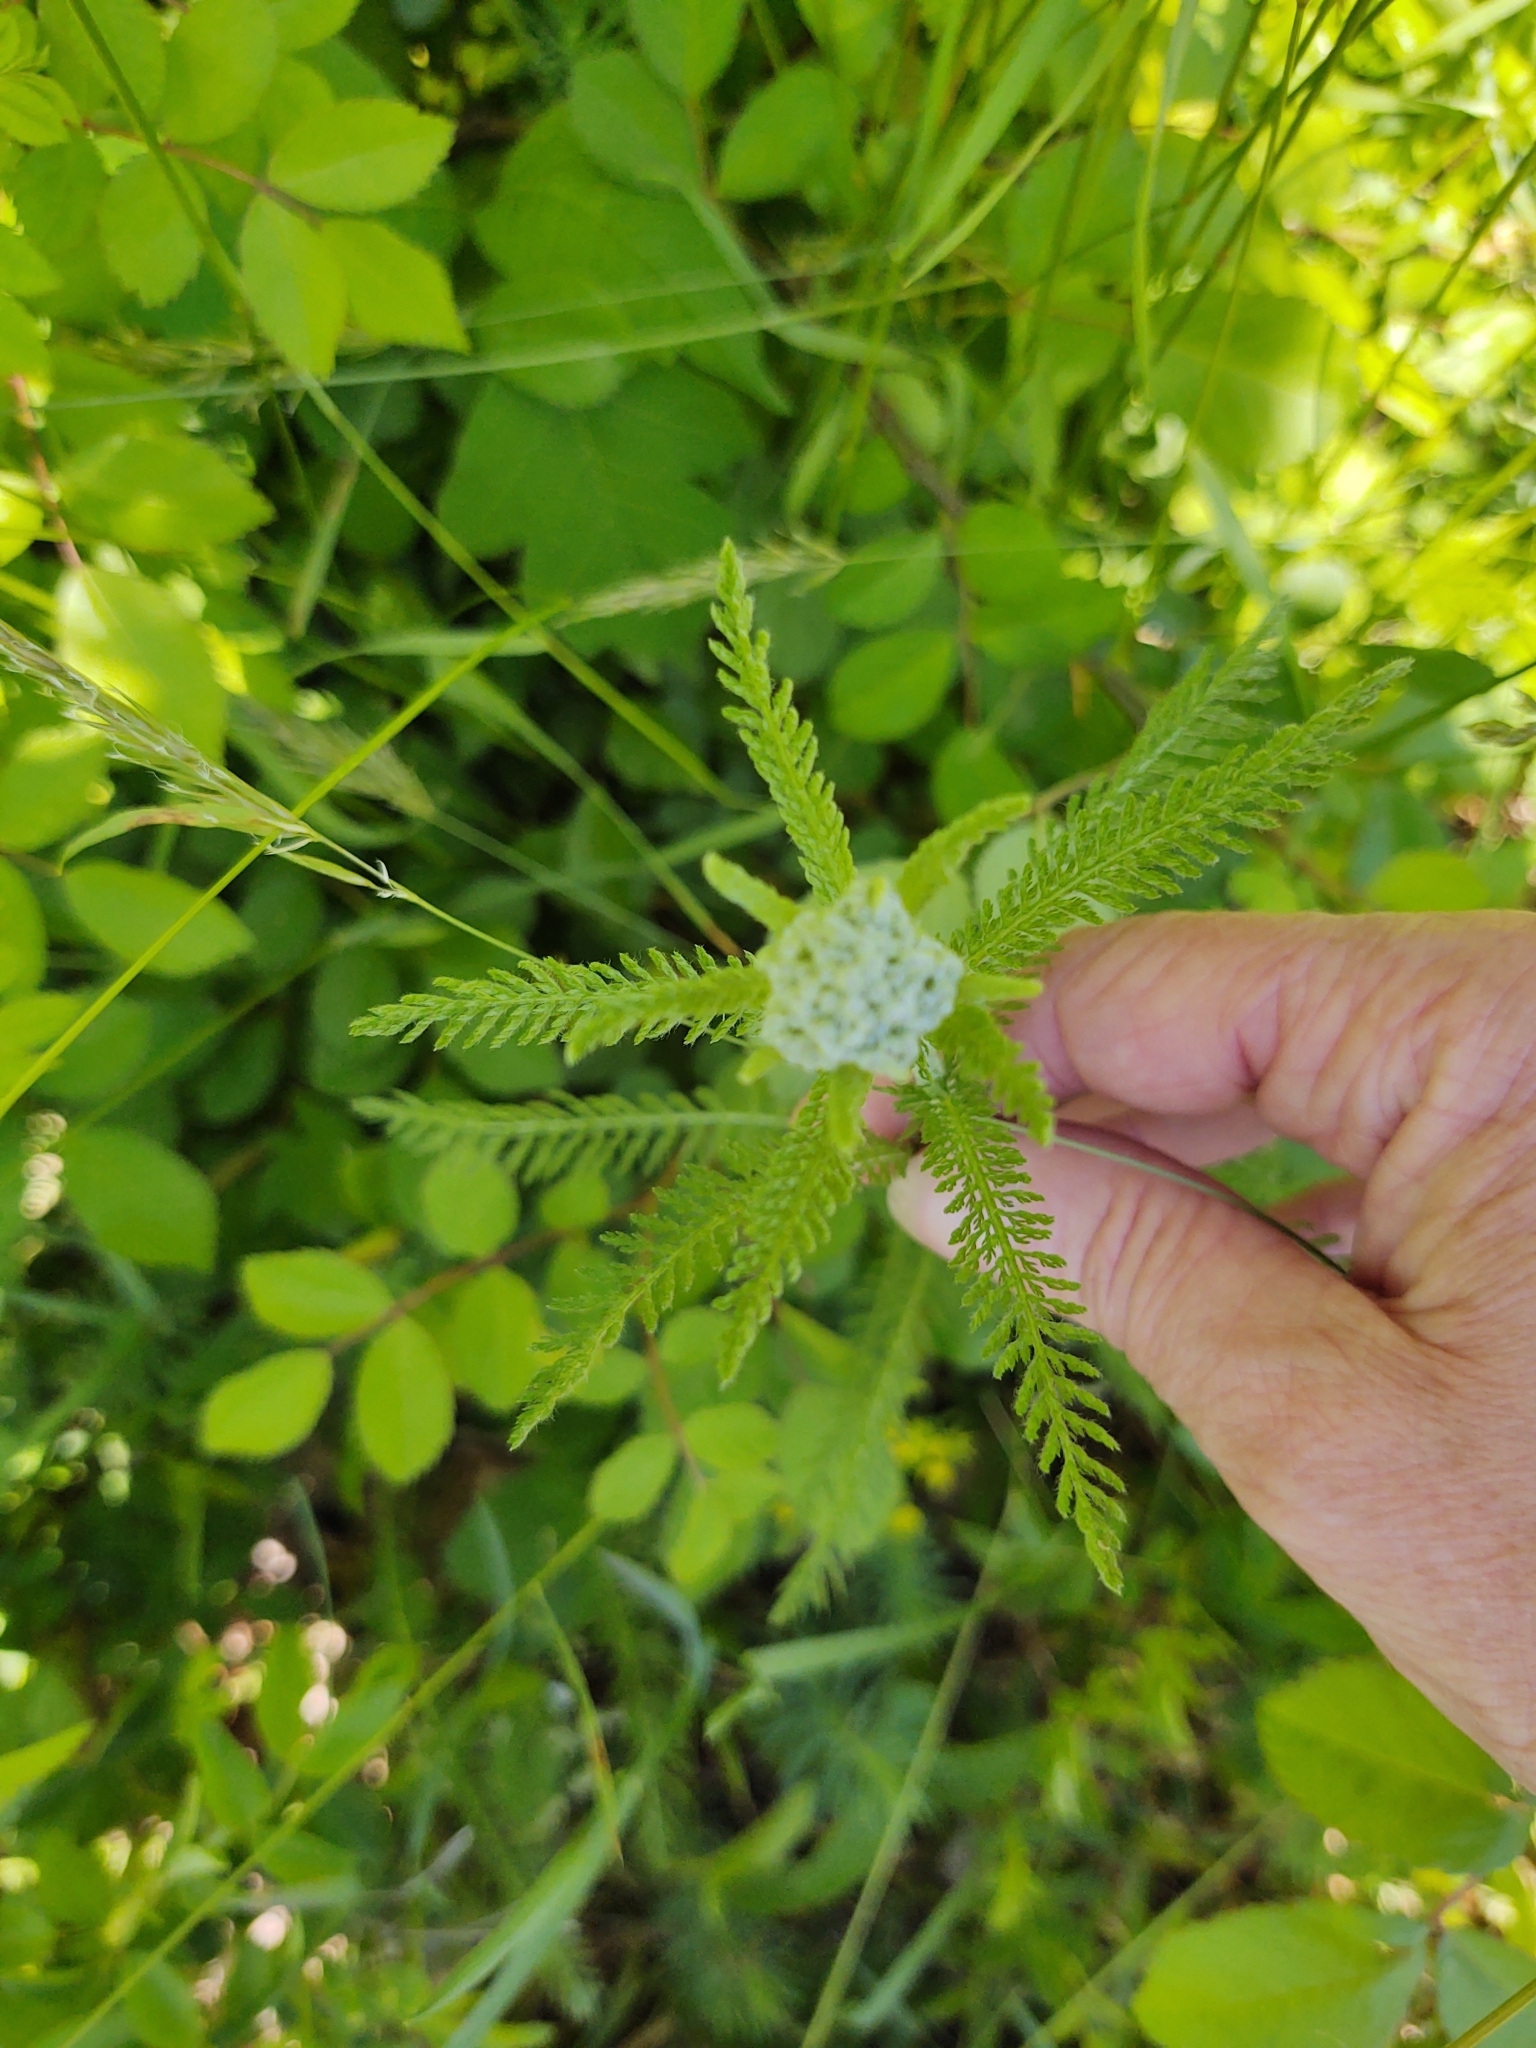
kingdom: Plantae
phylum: Tracheophyta
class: Magnoliopsida
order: Asterales
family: Asteraceae
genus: Achillea
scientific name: Achillea millefolium
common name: Yarrow
